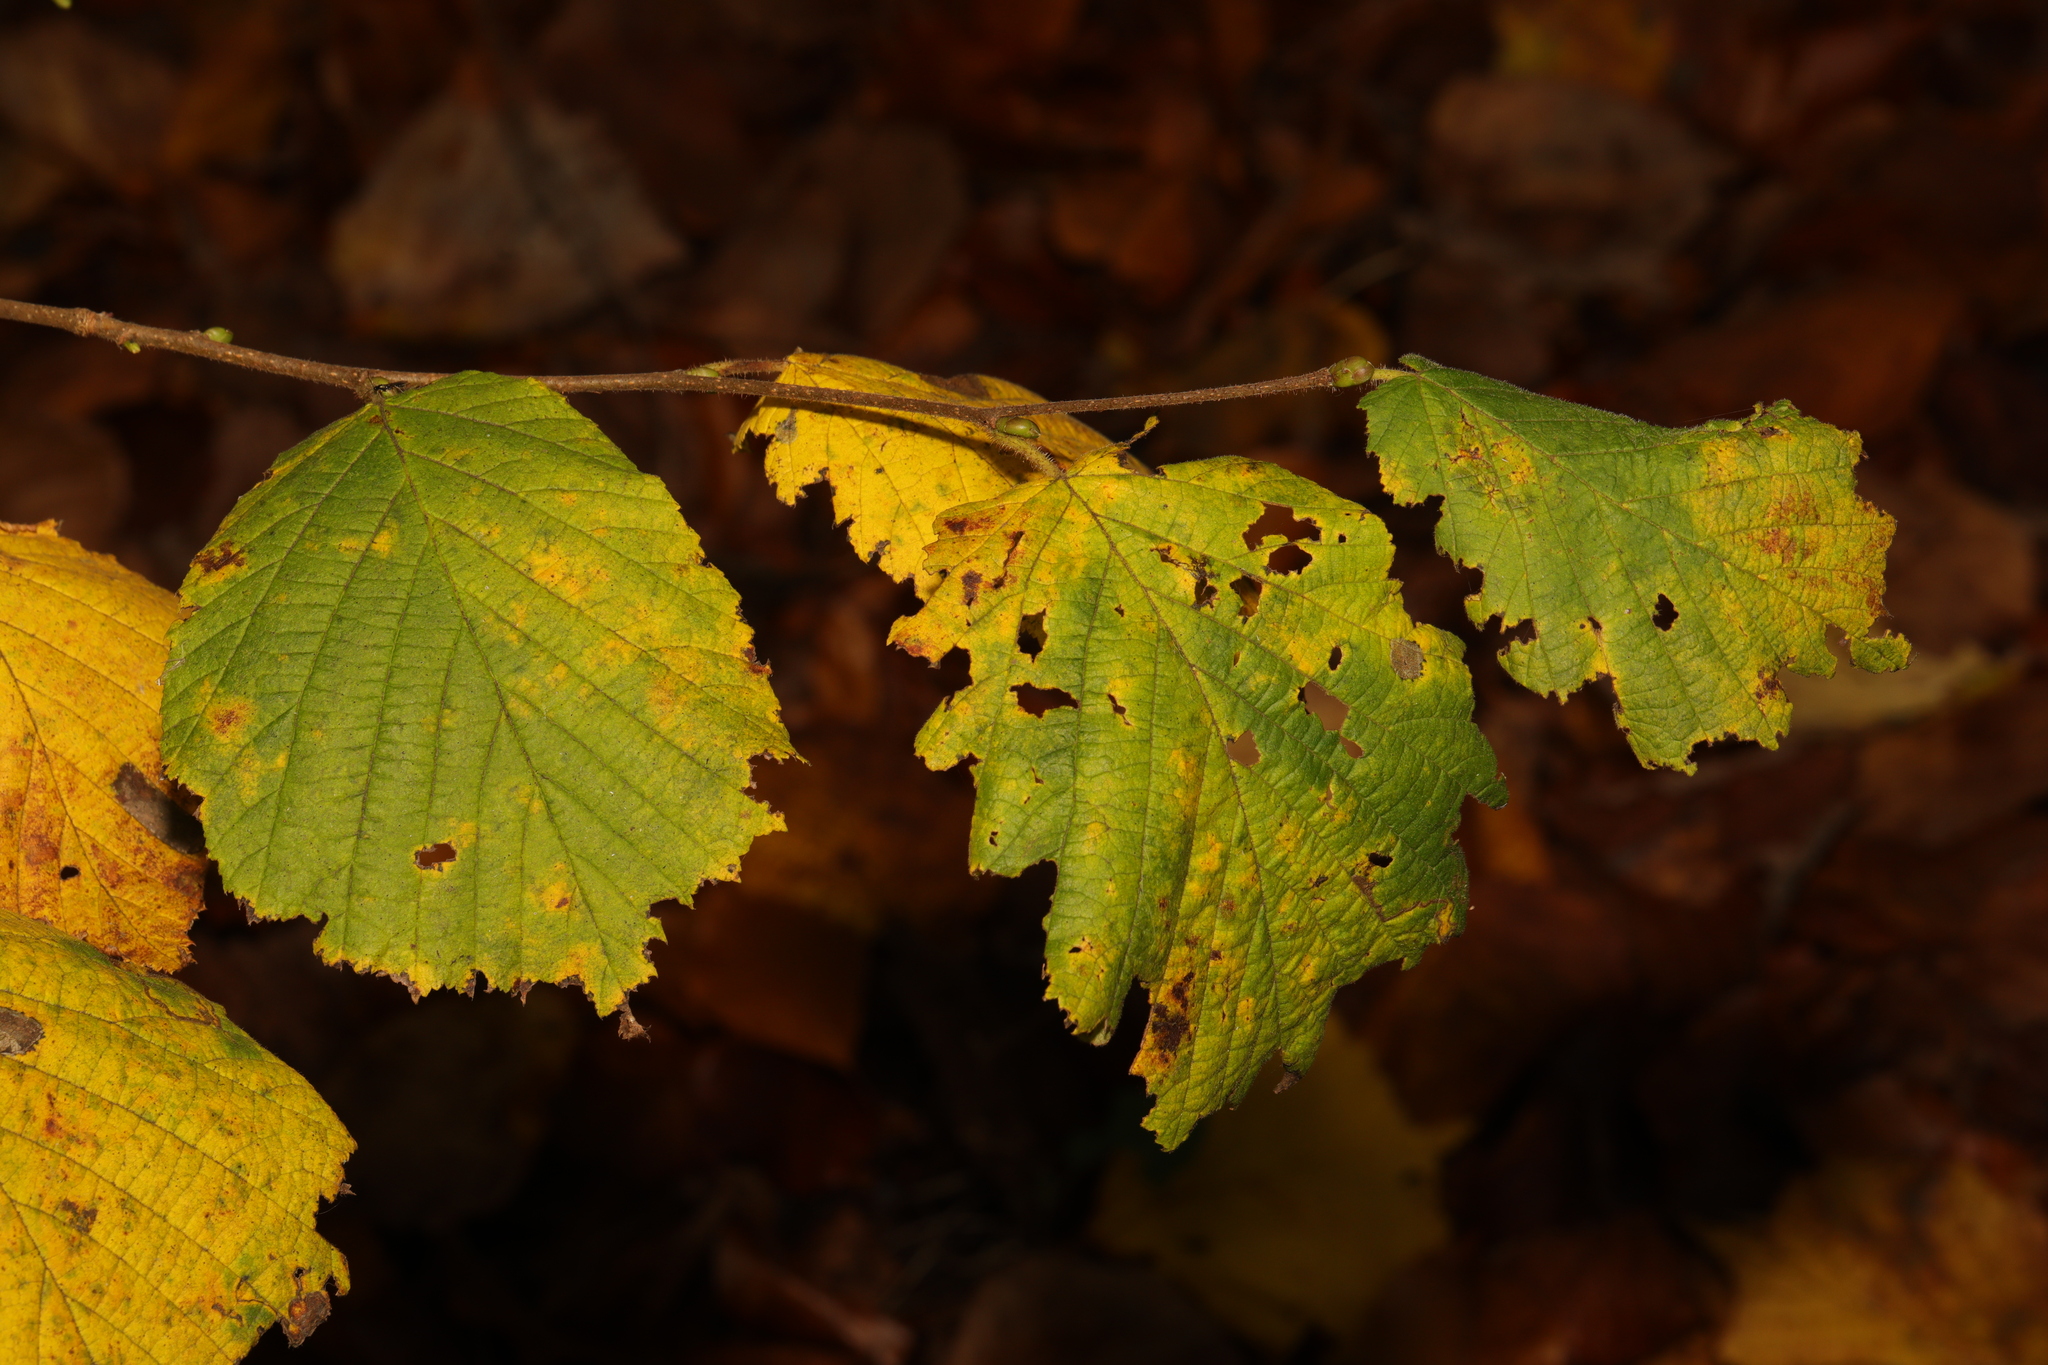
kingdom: Plantae
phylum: Tracheophyta
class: Magnoliopsida
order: Fagales
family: Betulaceae
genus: Corylus
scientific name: Corylus avellana
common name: European hazel
